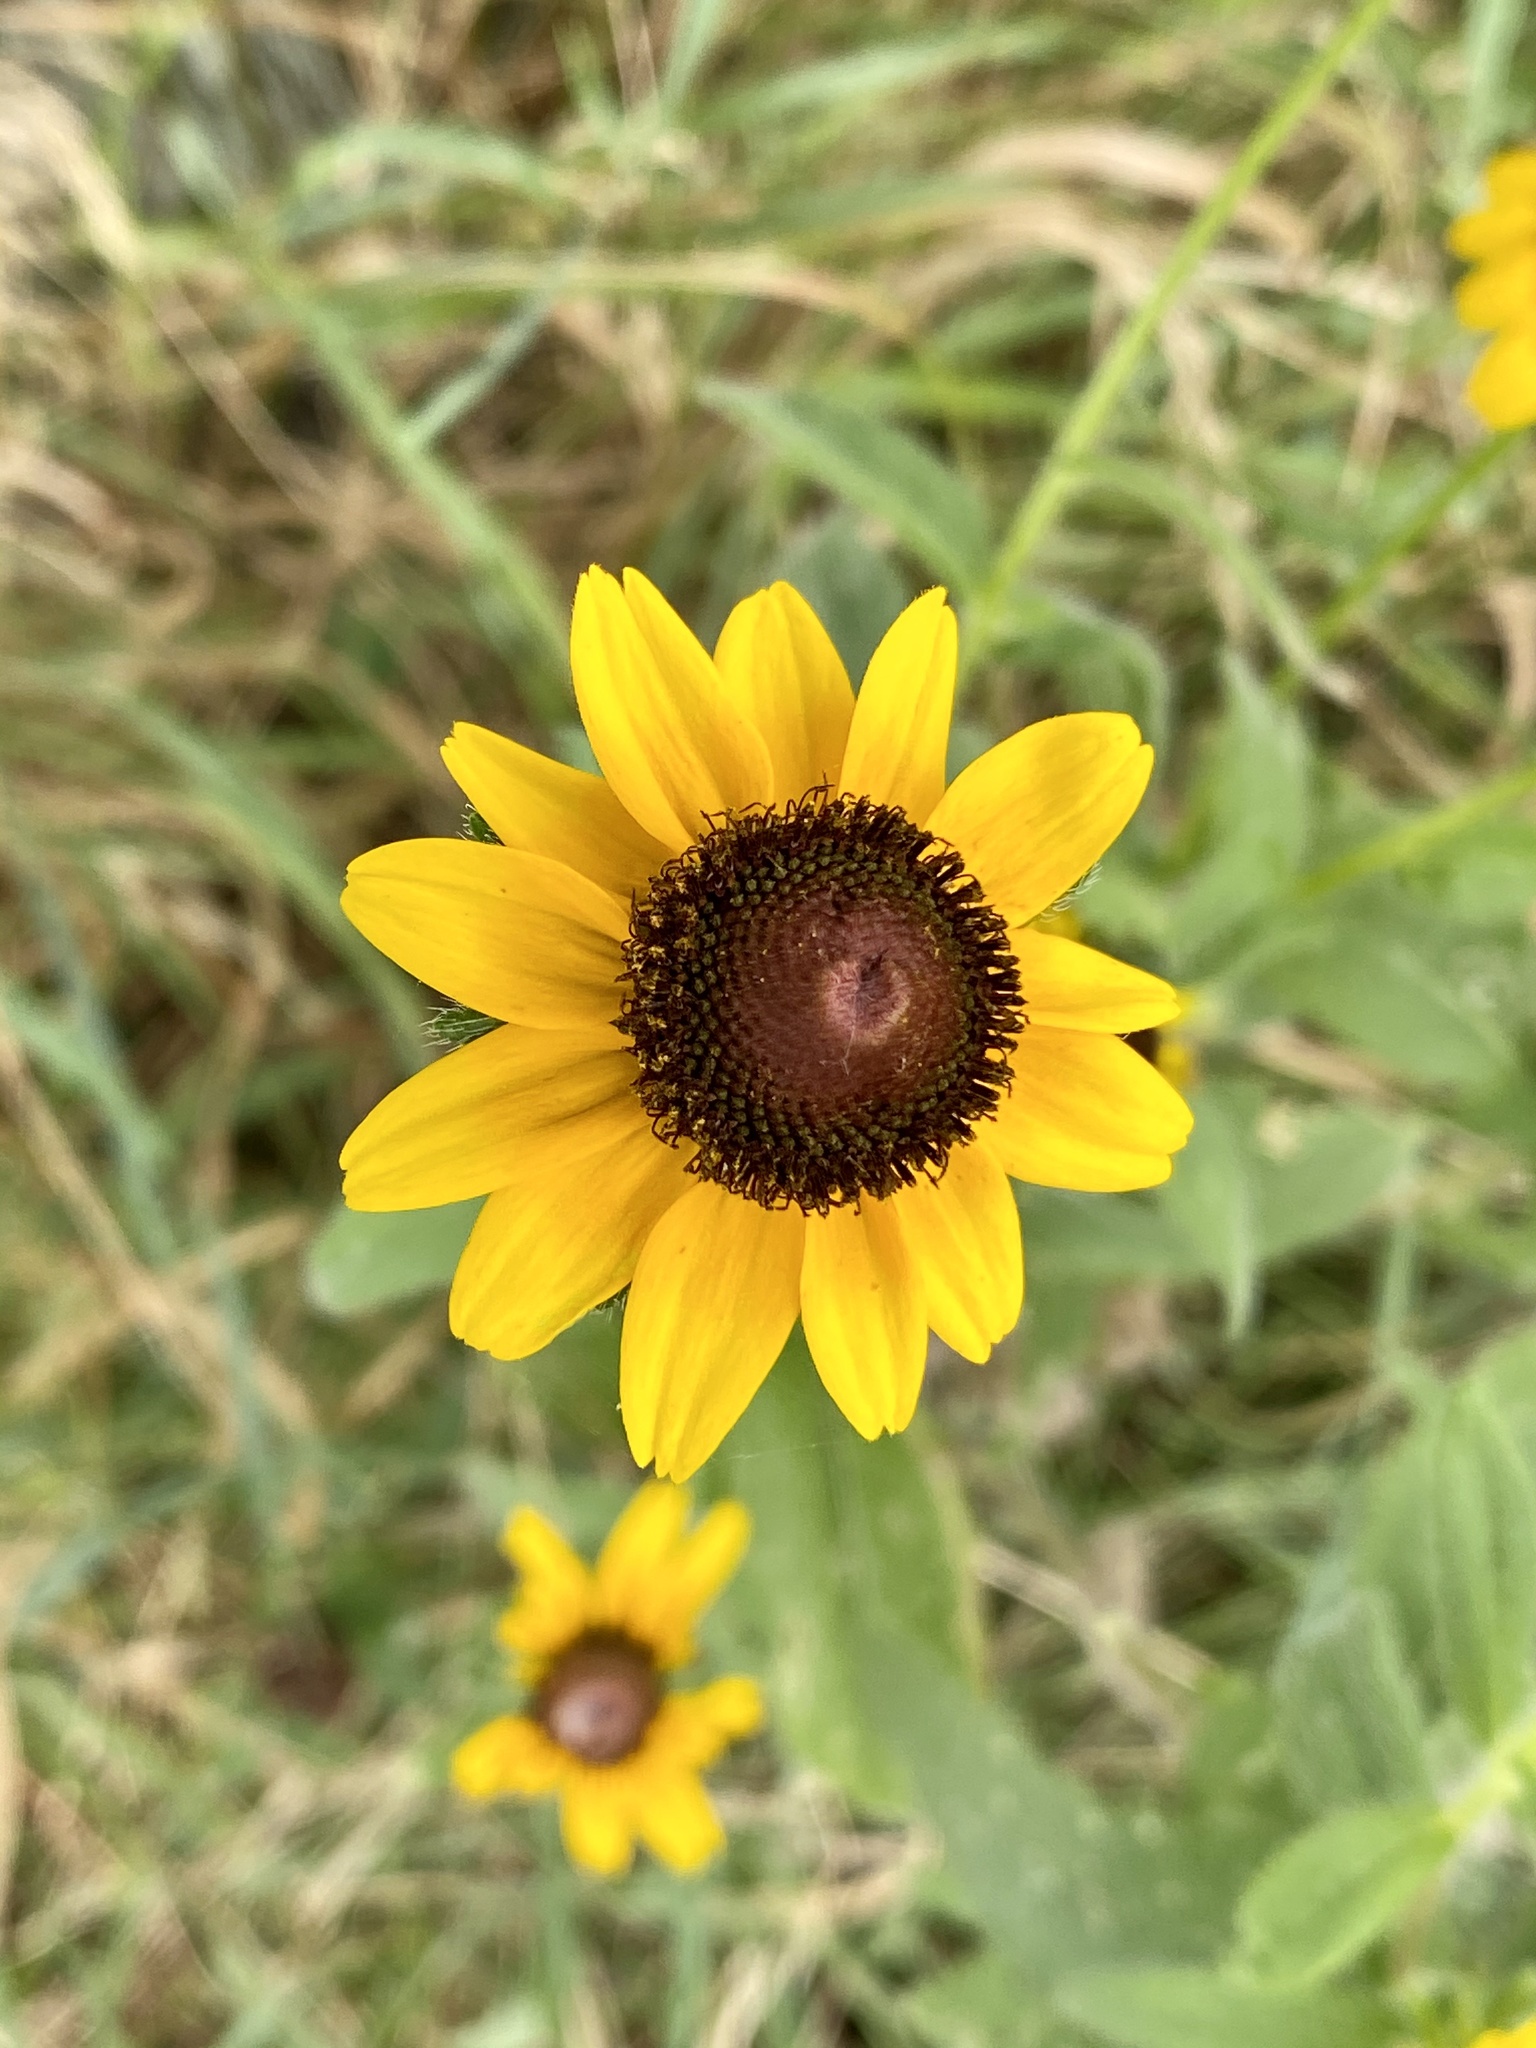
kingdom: Plantae
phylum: Tracheophyta
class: Magnoliopsida
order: Asterales
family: Asteraceae
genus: Rudbeckia
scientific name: Rudbeckia hirta
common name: Black-eyed-susan
